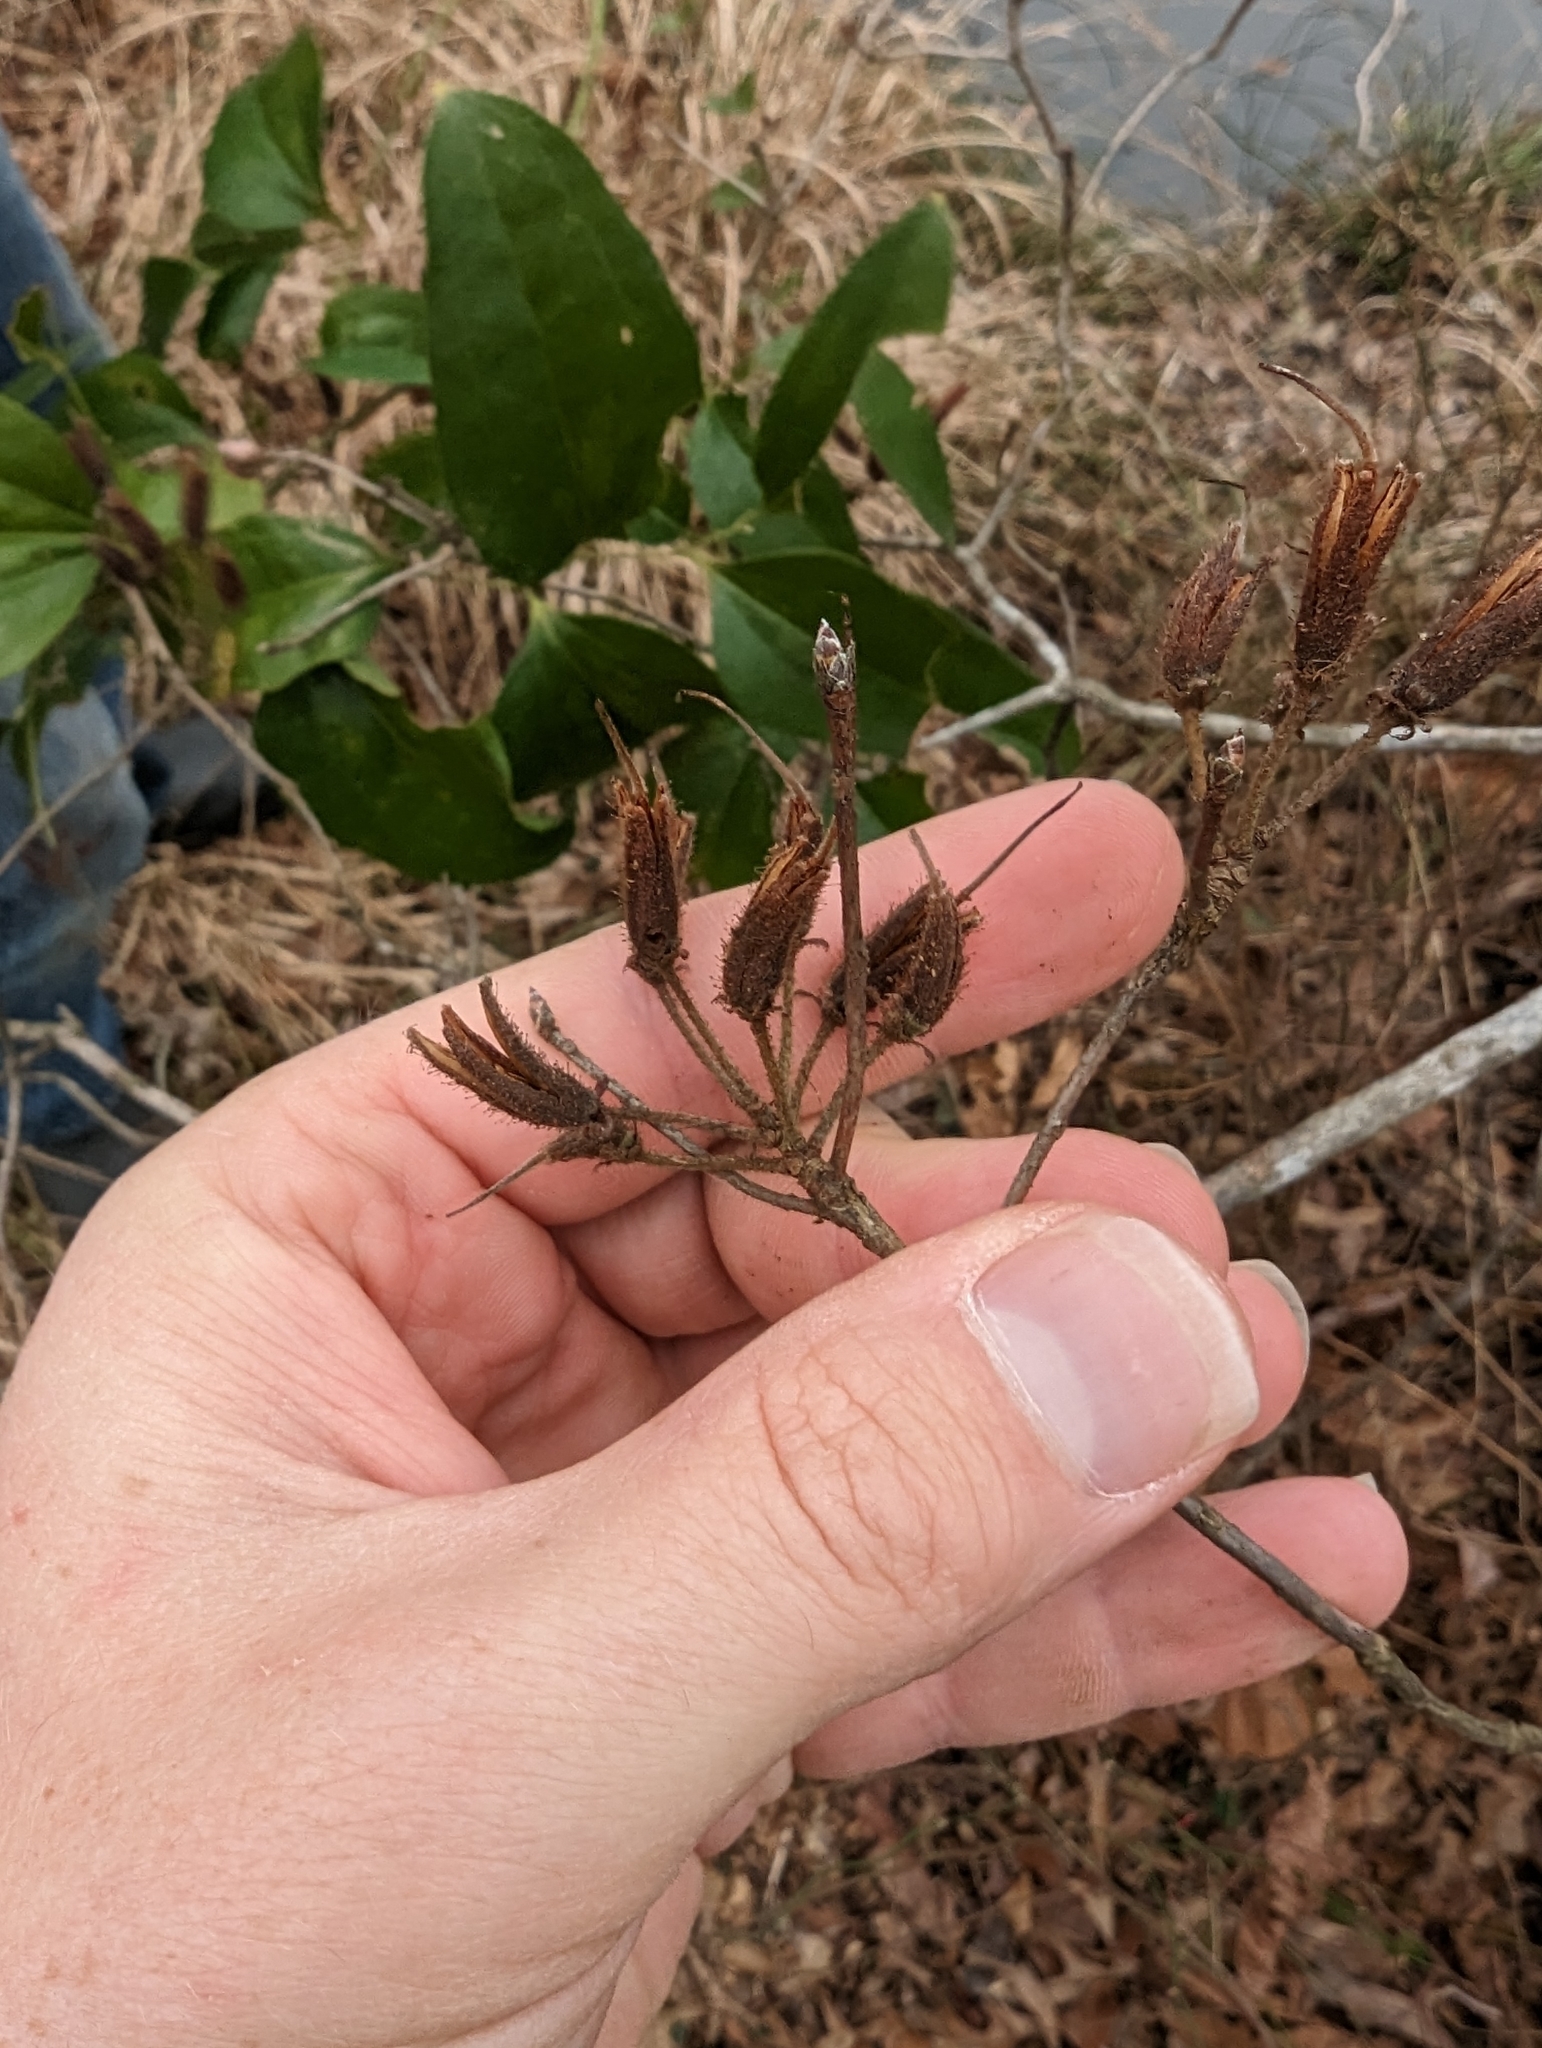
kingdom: Plantae
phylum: Tracheophyta
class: Magnoliopsida
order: Ericales
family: Ericaceae
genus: Rhododendron
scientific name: Rhododendron viscosum
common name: Clammy azalea
